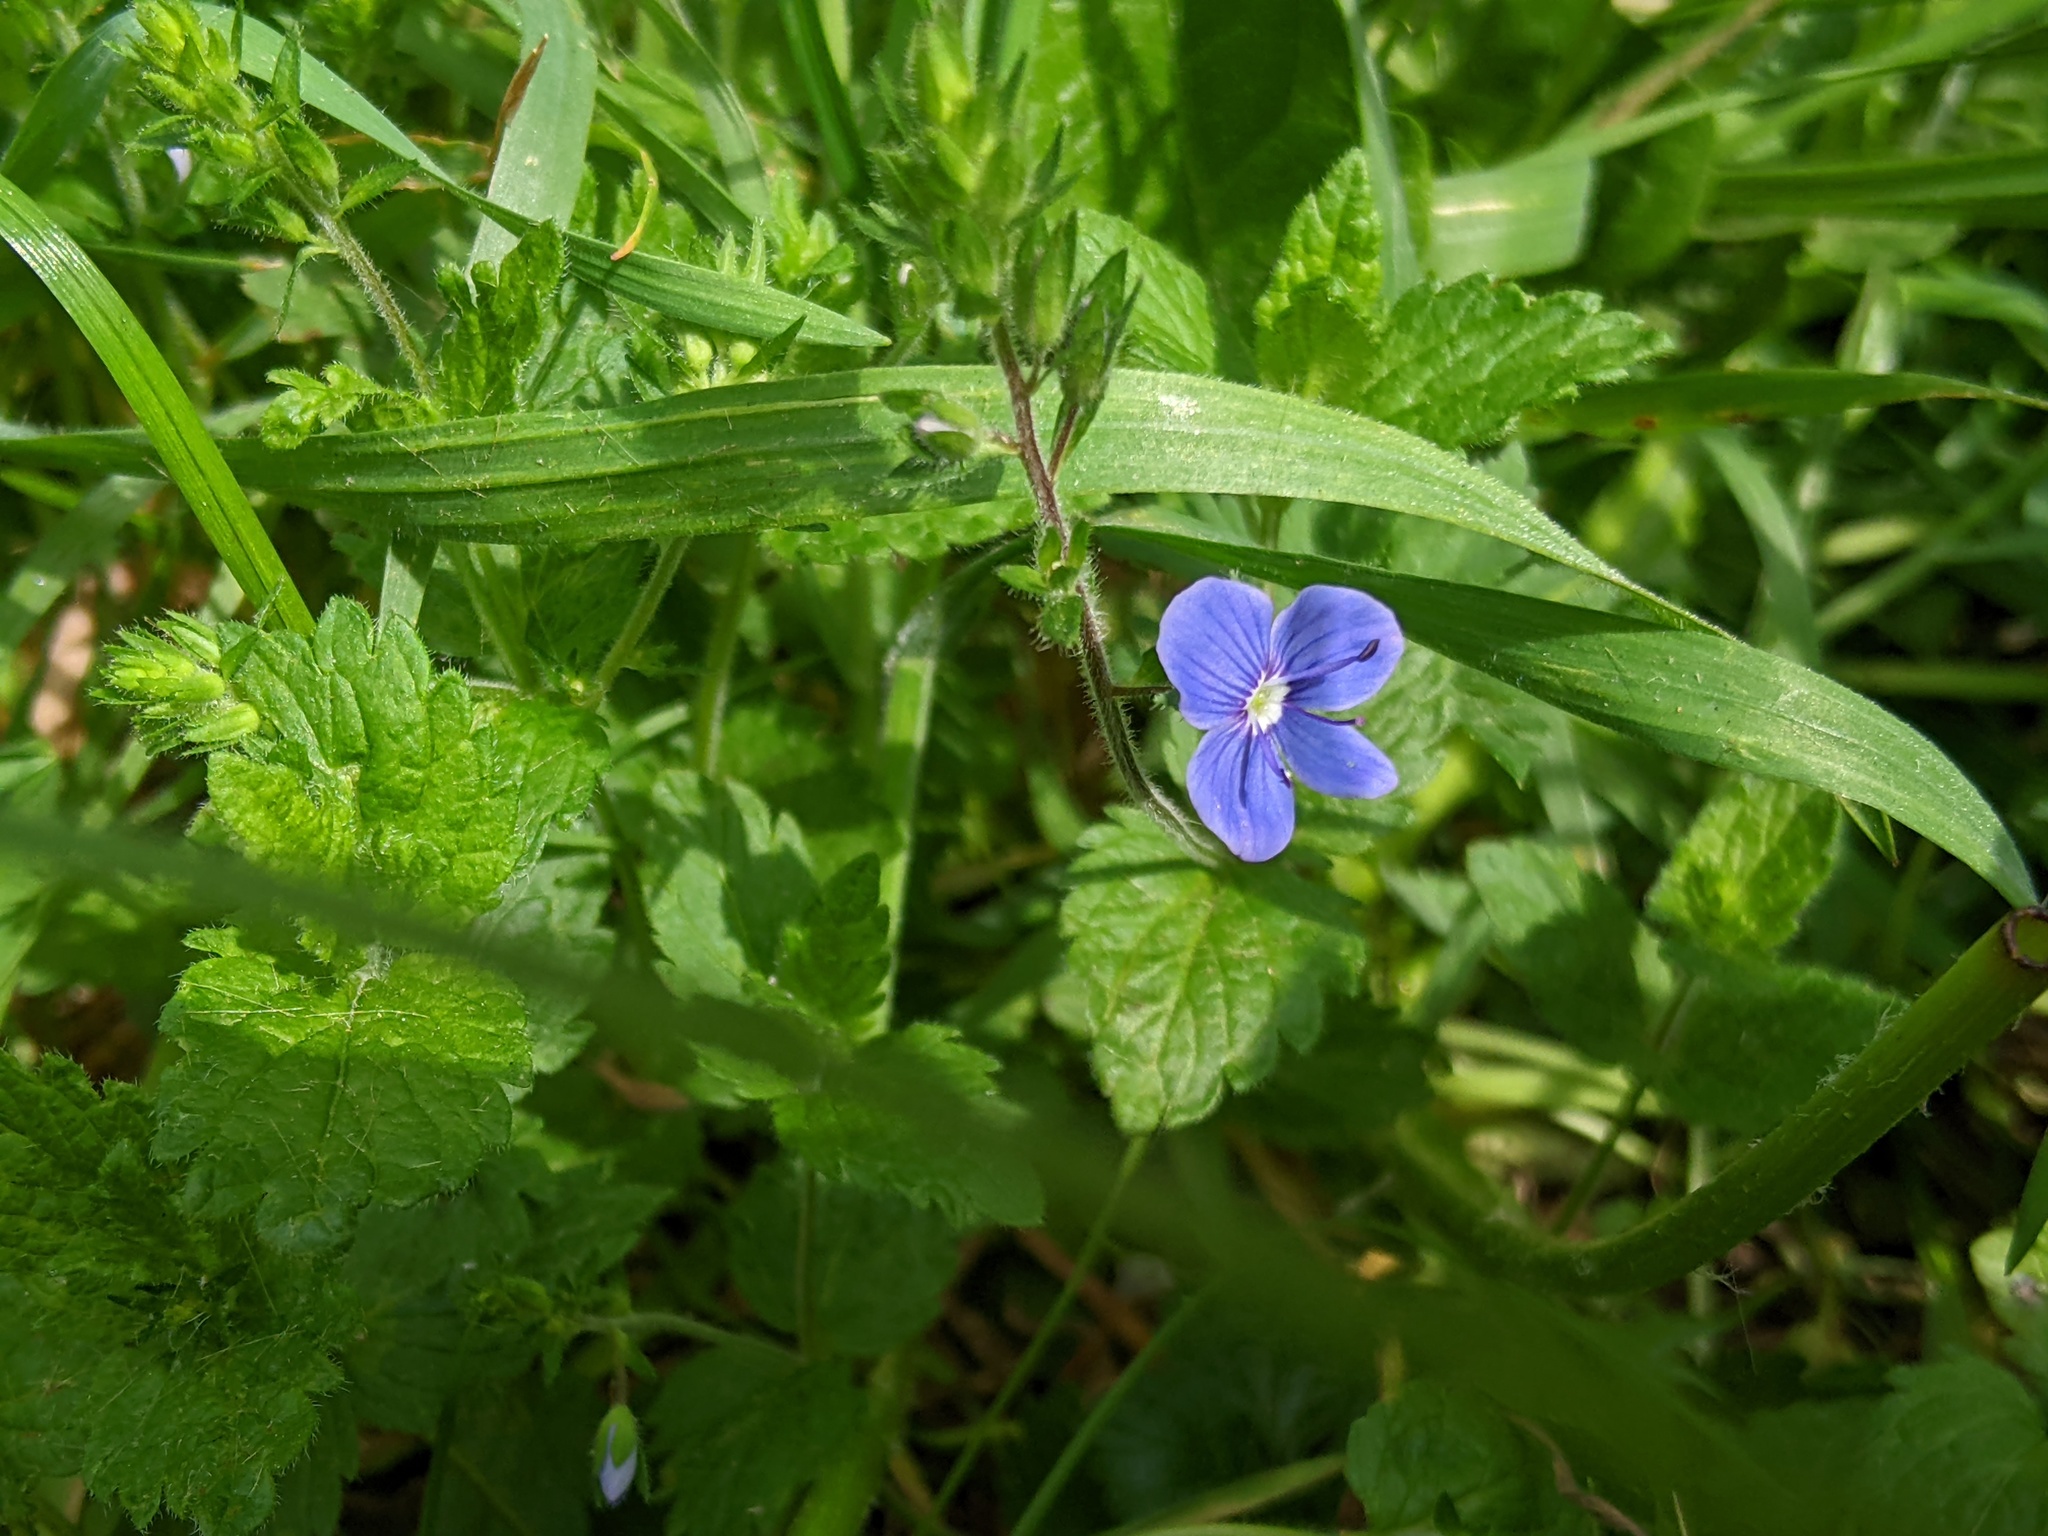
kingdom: Plantae
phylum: Tracheophyta
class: Magnoliopsida
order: Lamiales
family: Plantaginaceae
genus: Veronica
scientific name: Veronica chamaedrys
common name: Germander speedwell
